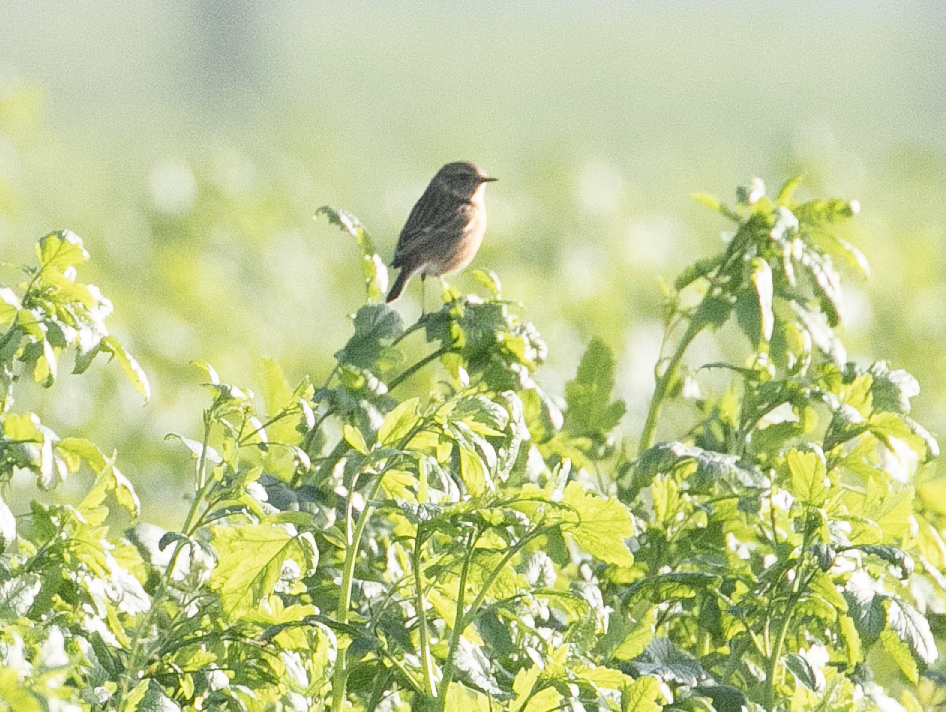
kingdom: Animalia
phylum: Chordata
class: Aves
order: Passeriformes
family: Muscicapidae
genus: Saxicola
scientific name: Saxicola rubicola
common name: European stonechat
